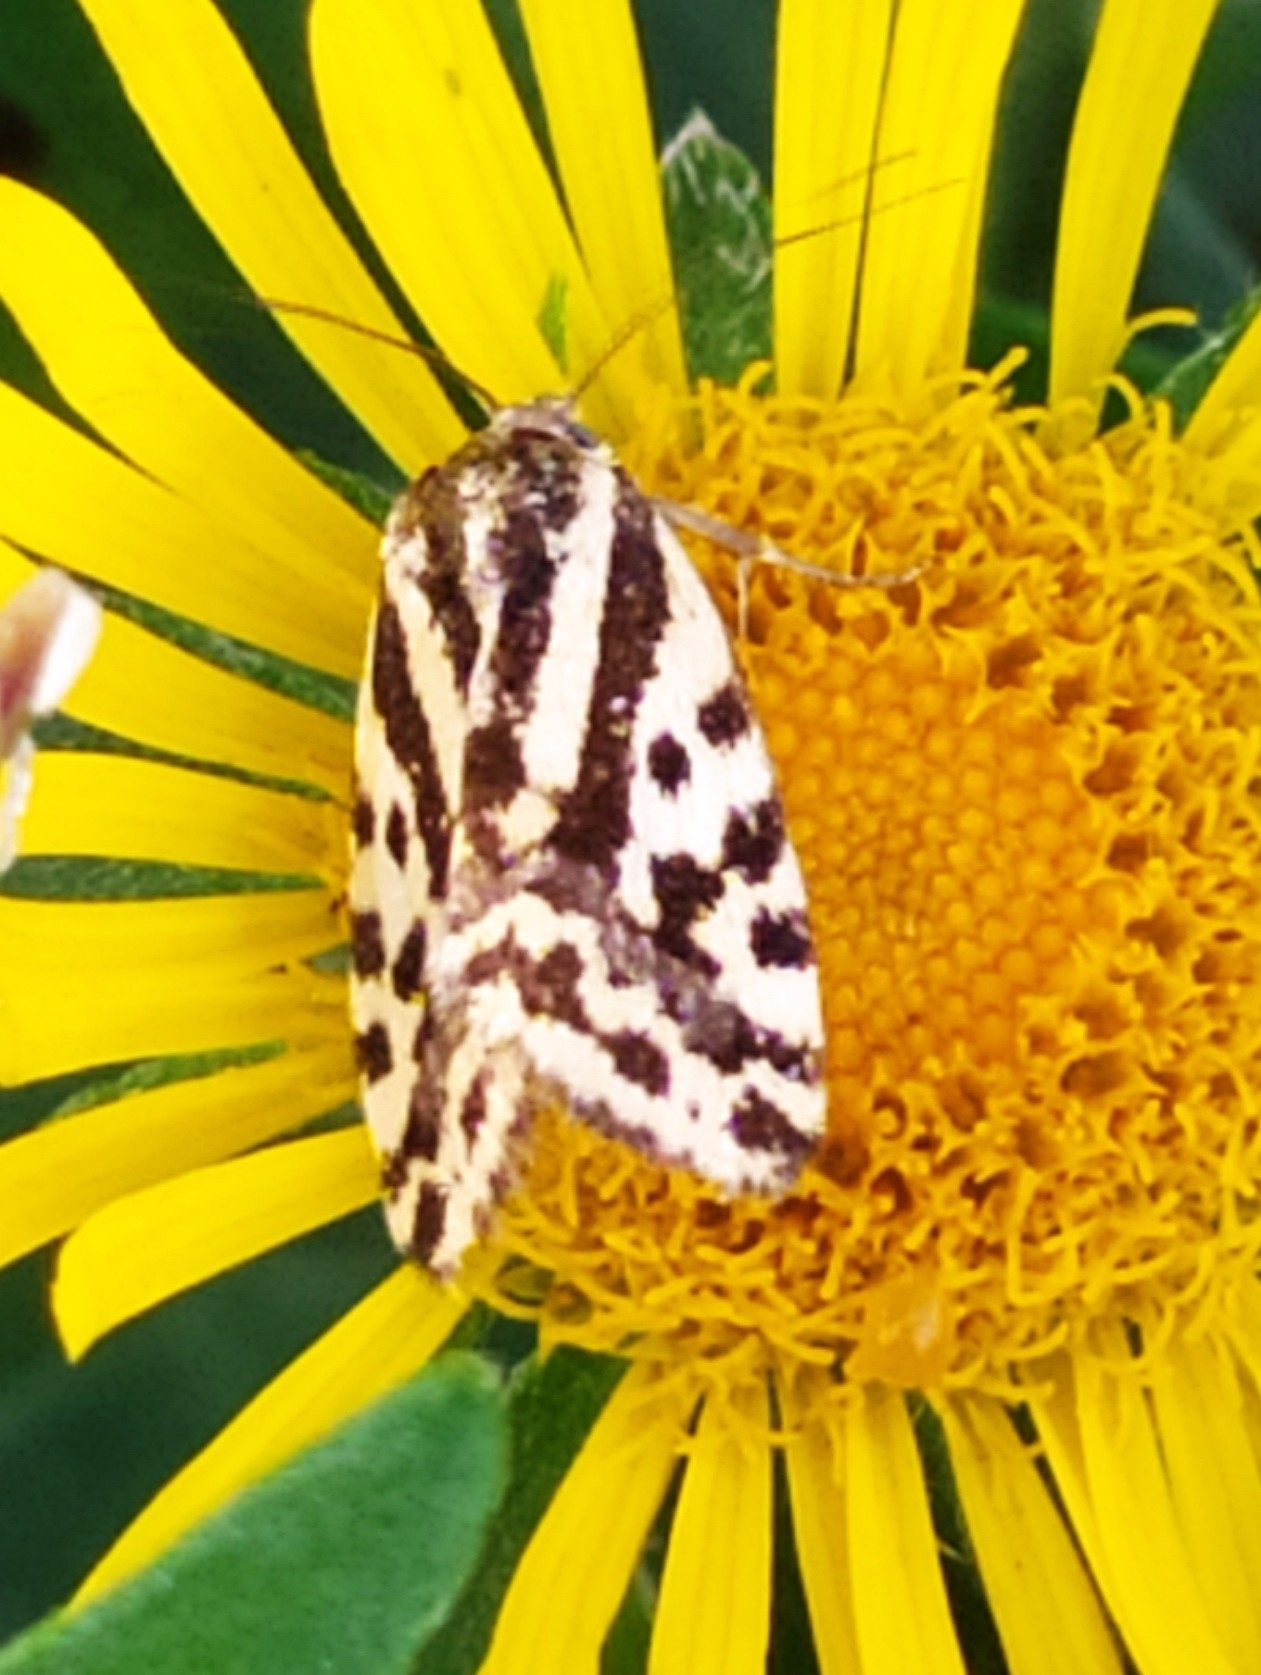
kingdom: Animalia
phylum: Arthropoda
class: Insecta
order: Lepidoptera
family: Noctuidae
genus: Acontia
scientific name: Acontia trabealis
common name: Spotted sulphur
